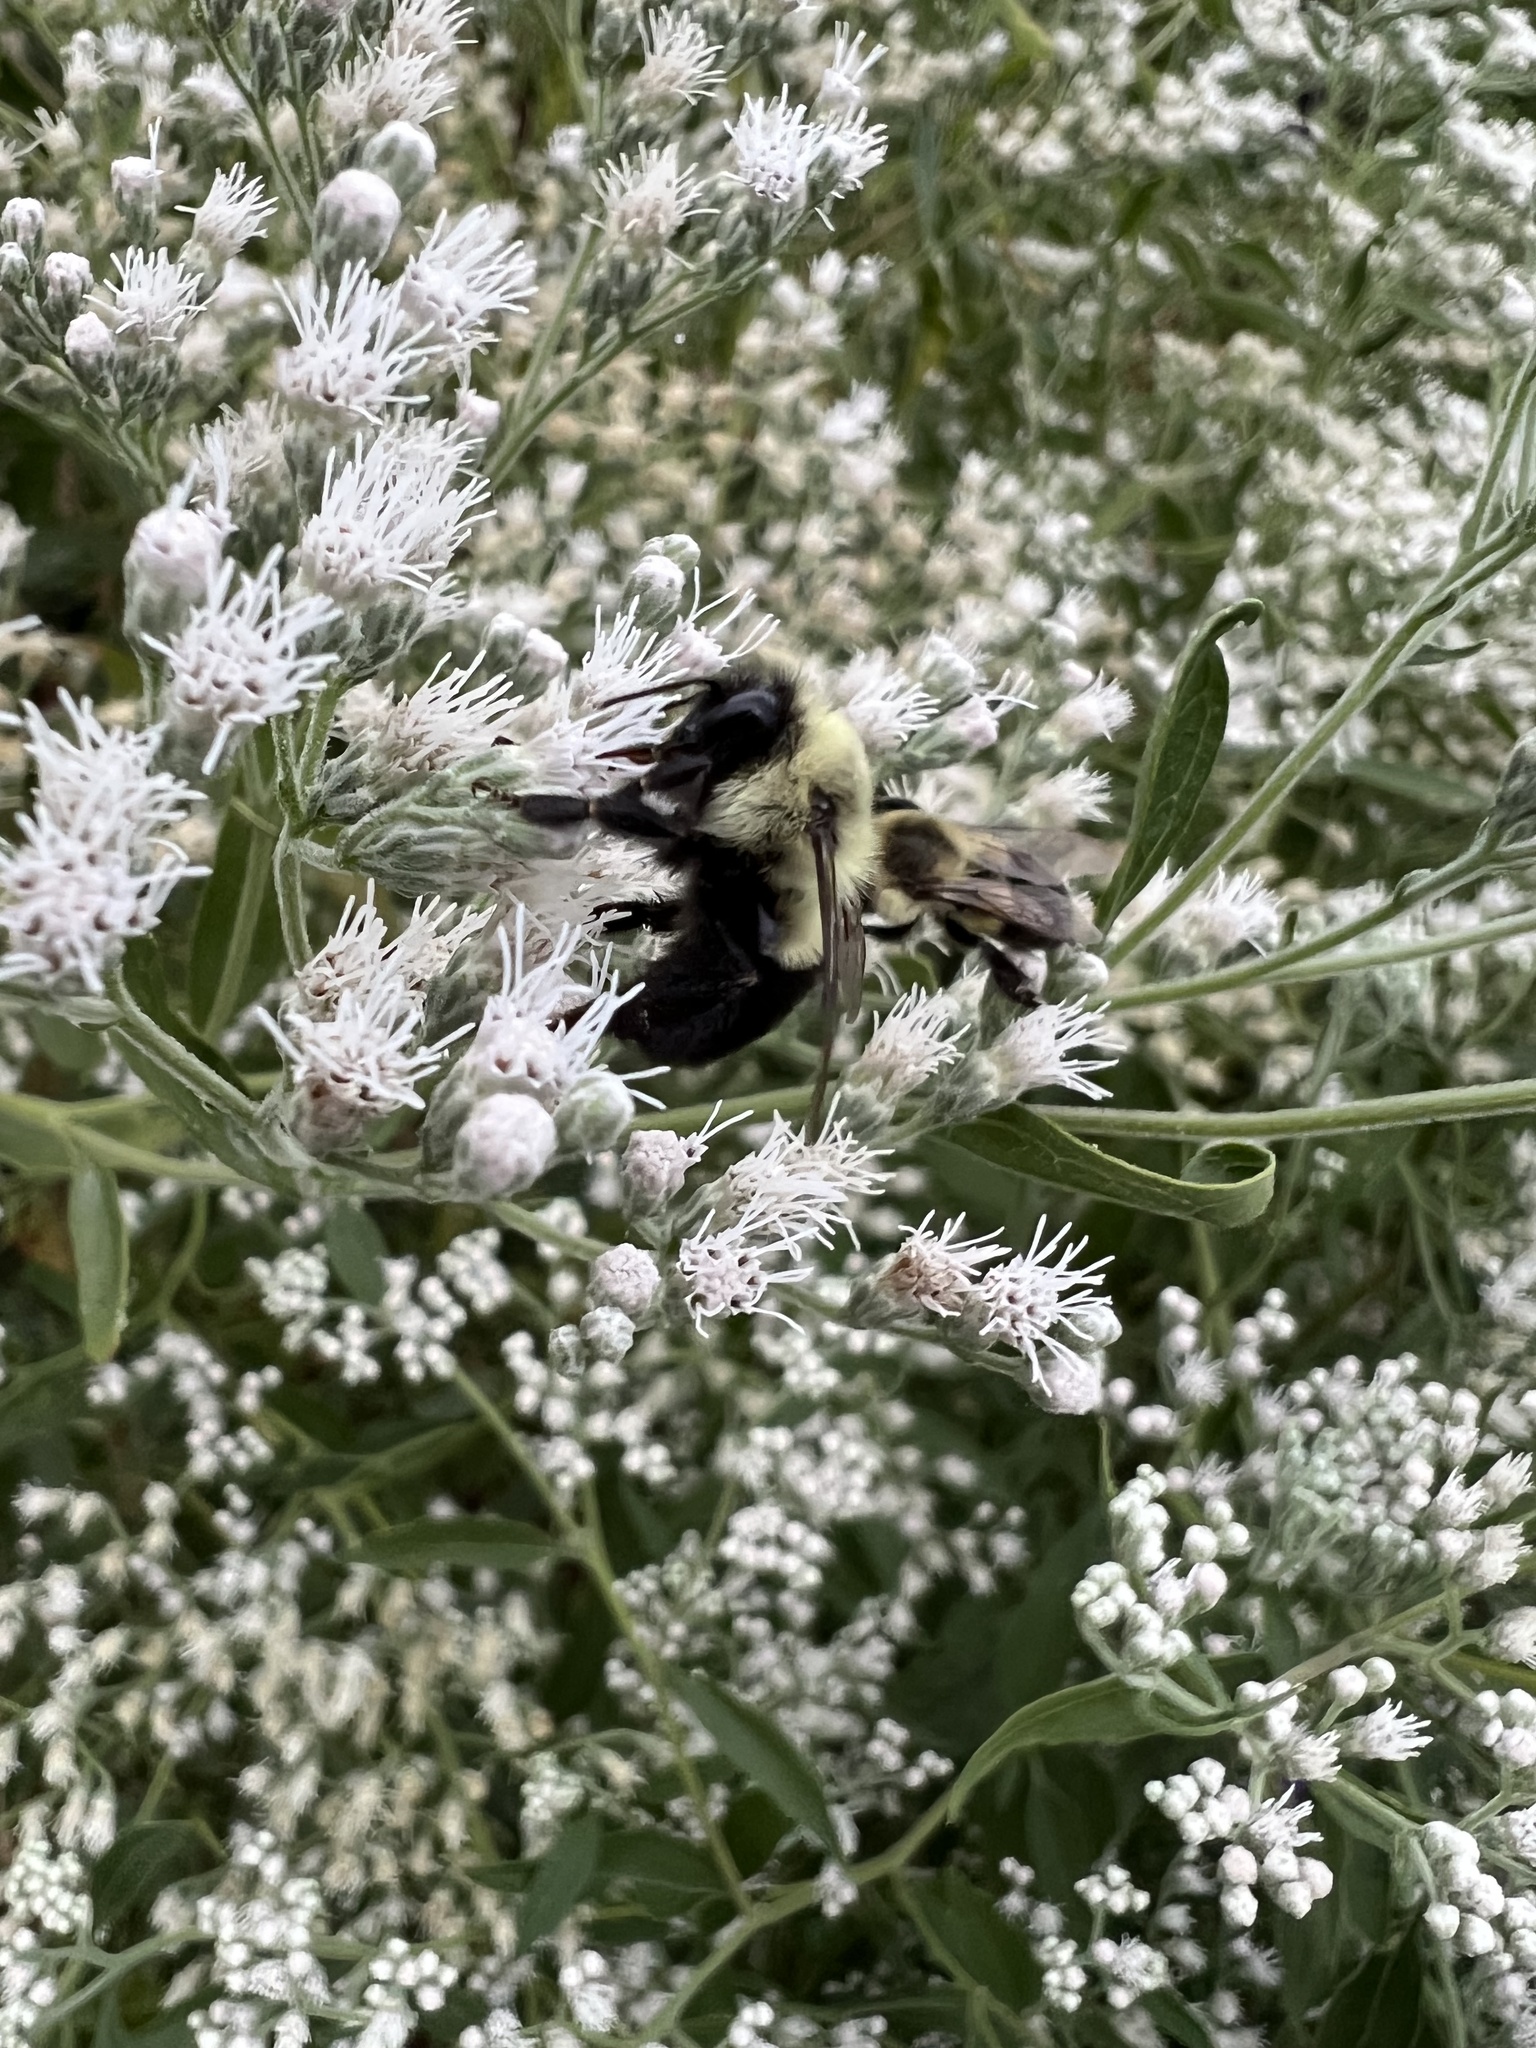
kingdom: Animalia
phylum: Arthropoda
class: Insecta
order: Hymenoptera
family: Apidae
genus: Bombus
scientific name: Bombus impatiens
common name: Common eastern bumble bee
